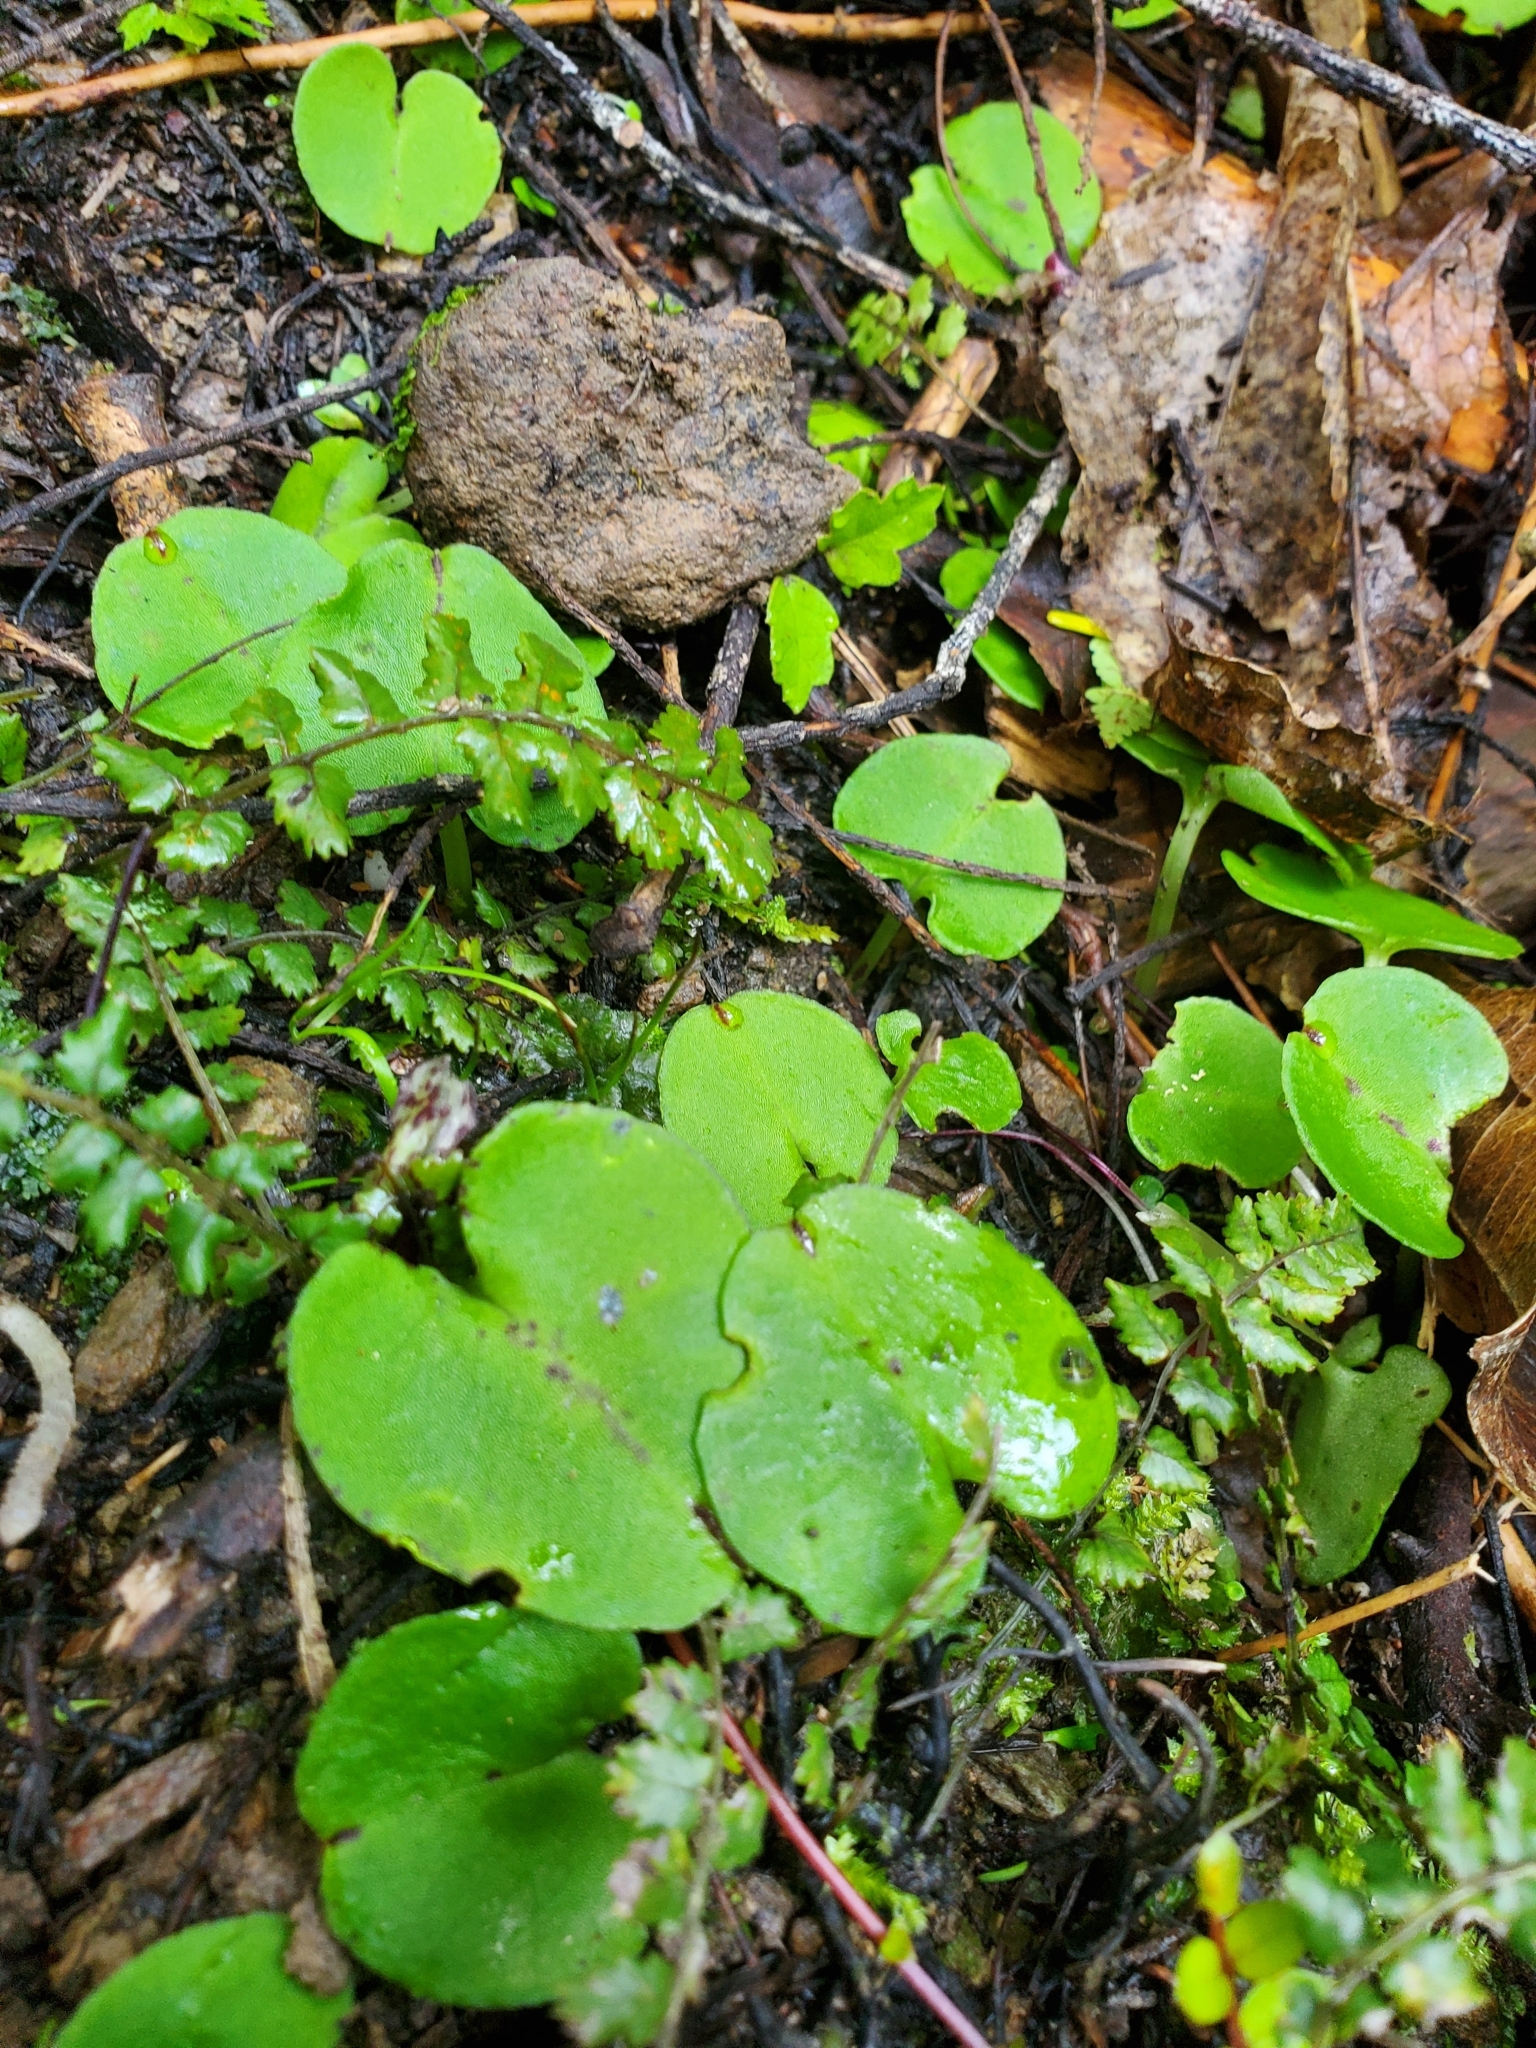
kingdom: Plantae
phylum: Tracheophyta
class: Liliopsida
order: Asparagales
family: Orchidaceae
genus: Corybas
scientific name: Corybas macranthus
